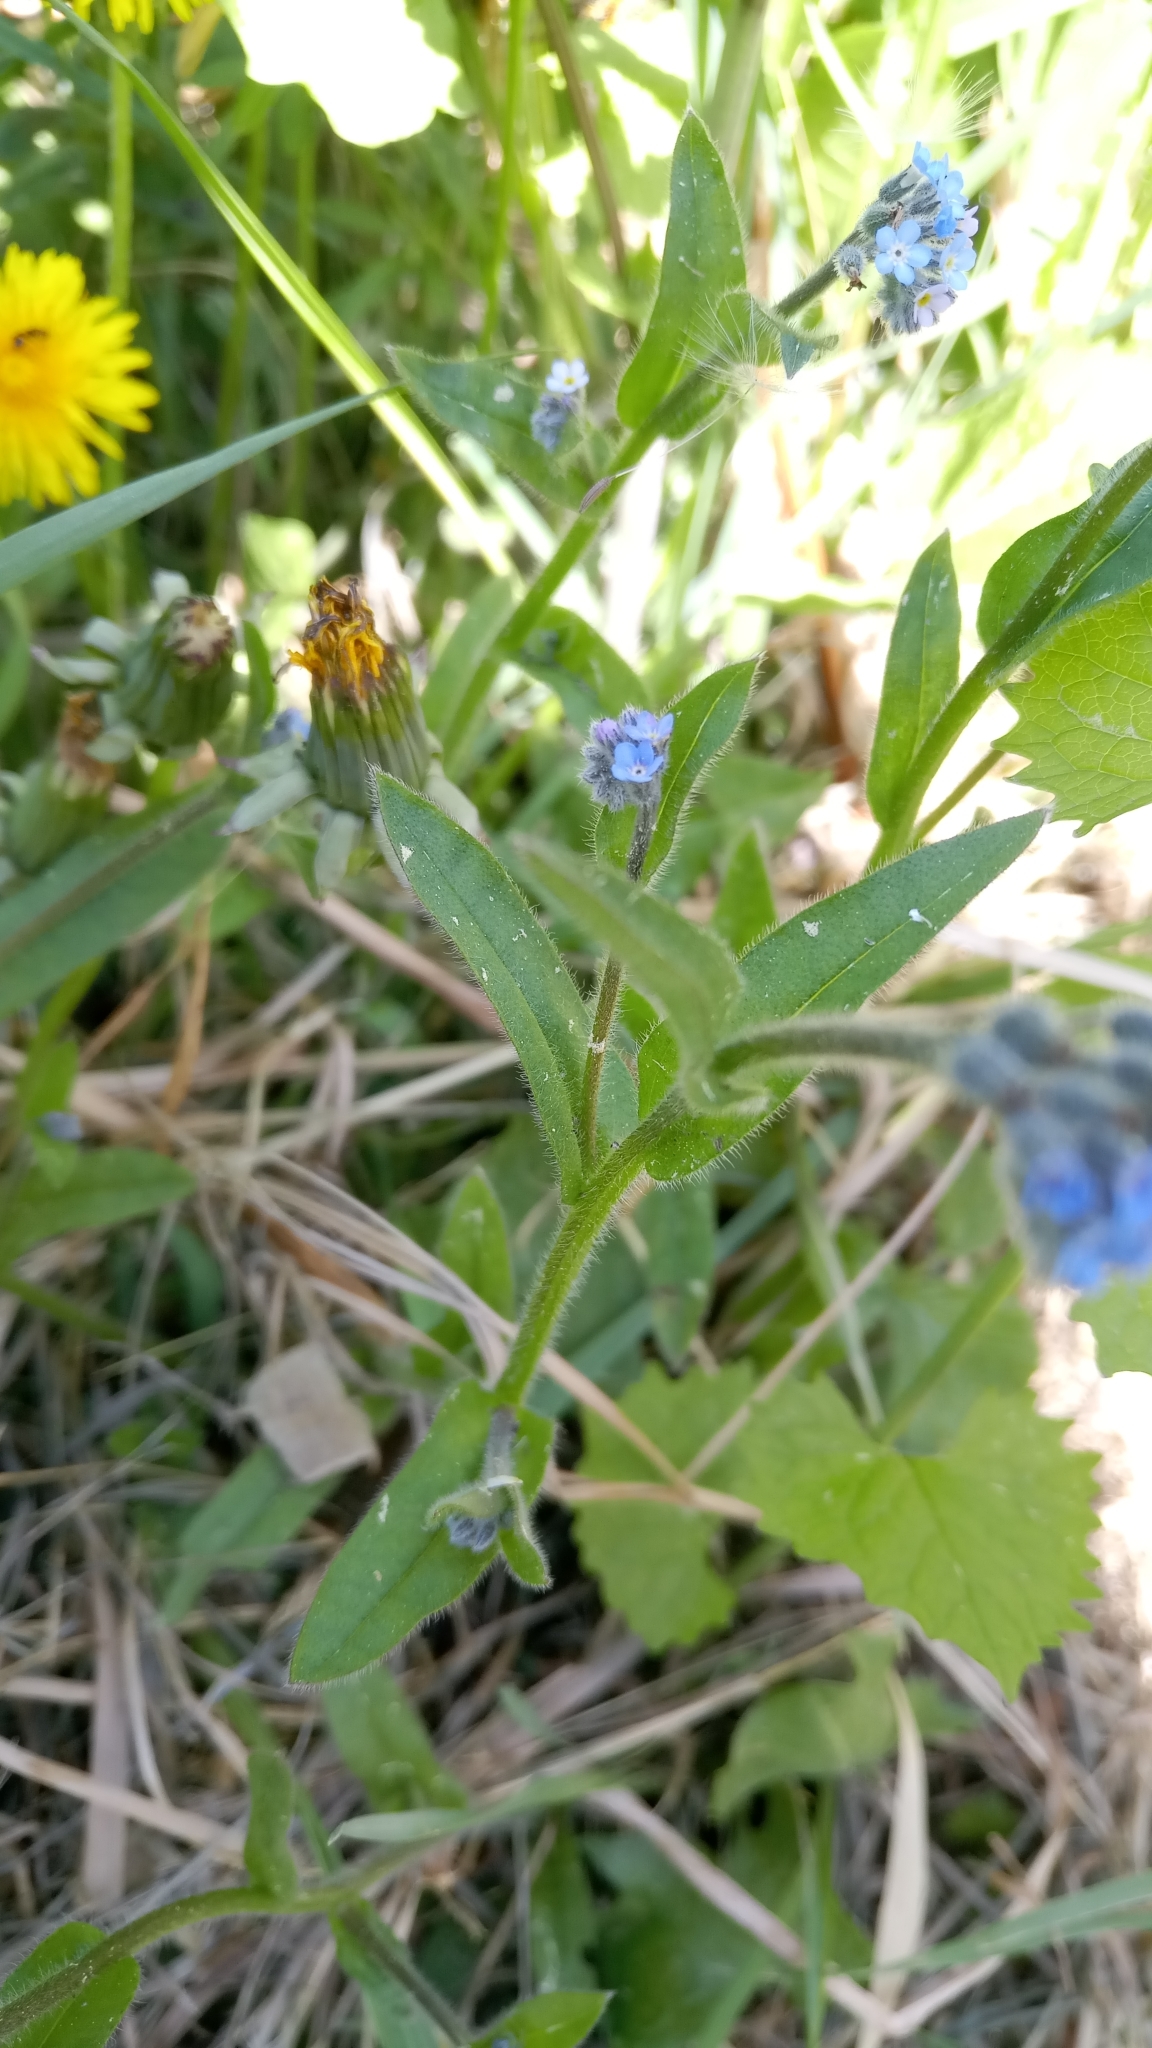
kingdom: Plantae
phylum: Tracheophyta
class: Magnoliopsida
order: Boraginales
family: Boraginaceae
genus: Myosotis
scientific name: Myosotis arvensis
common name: Field forget-me-not
